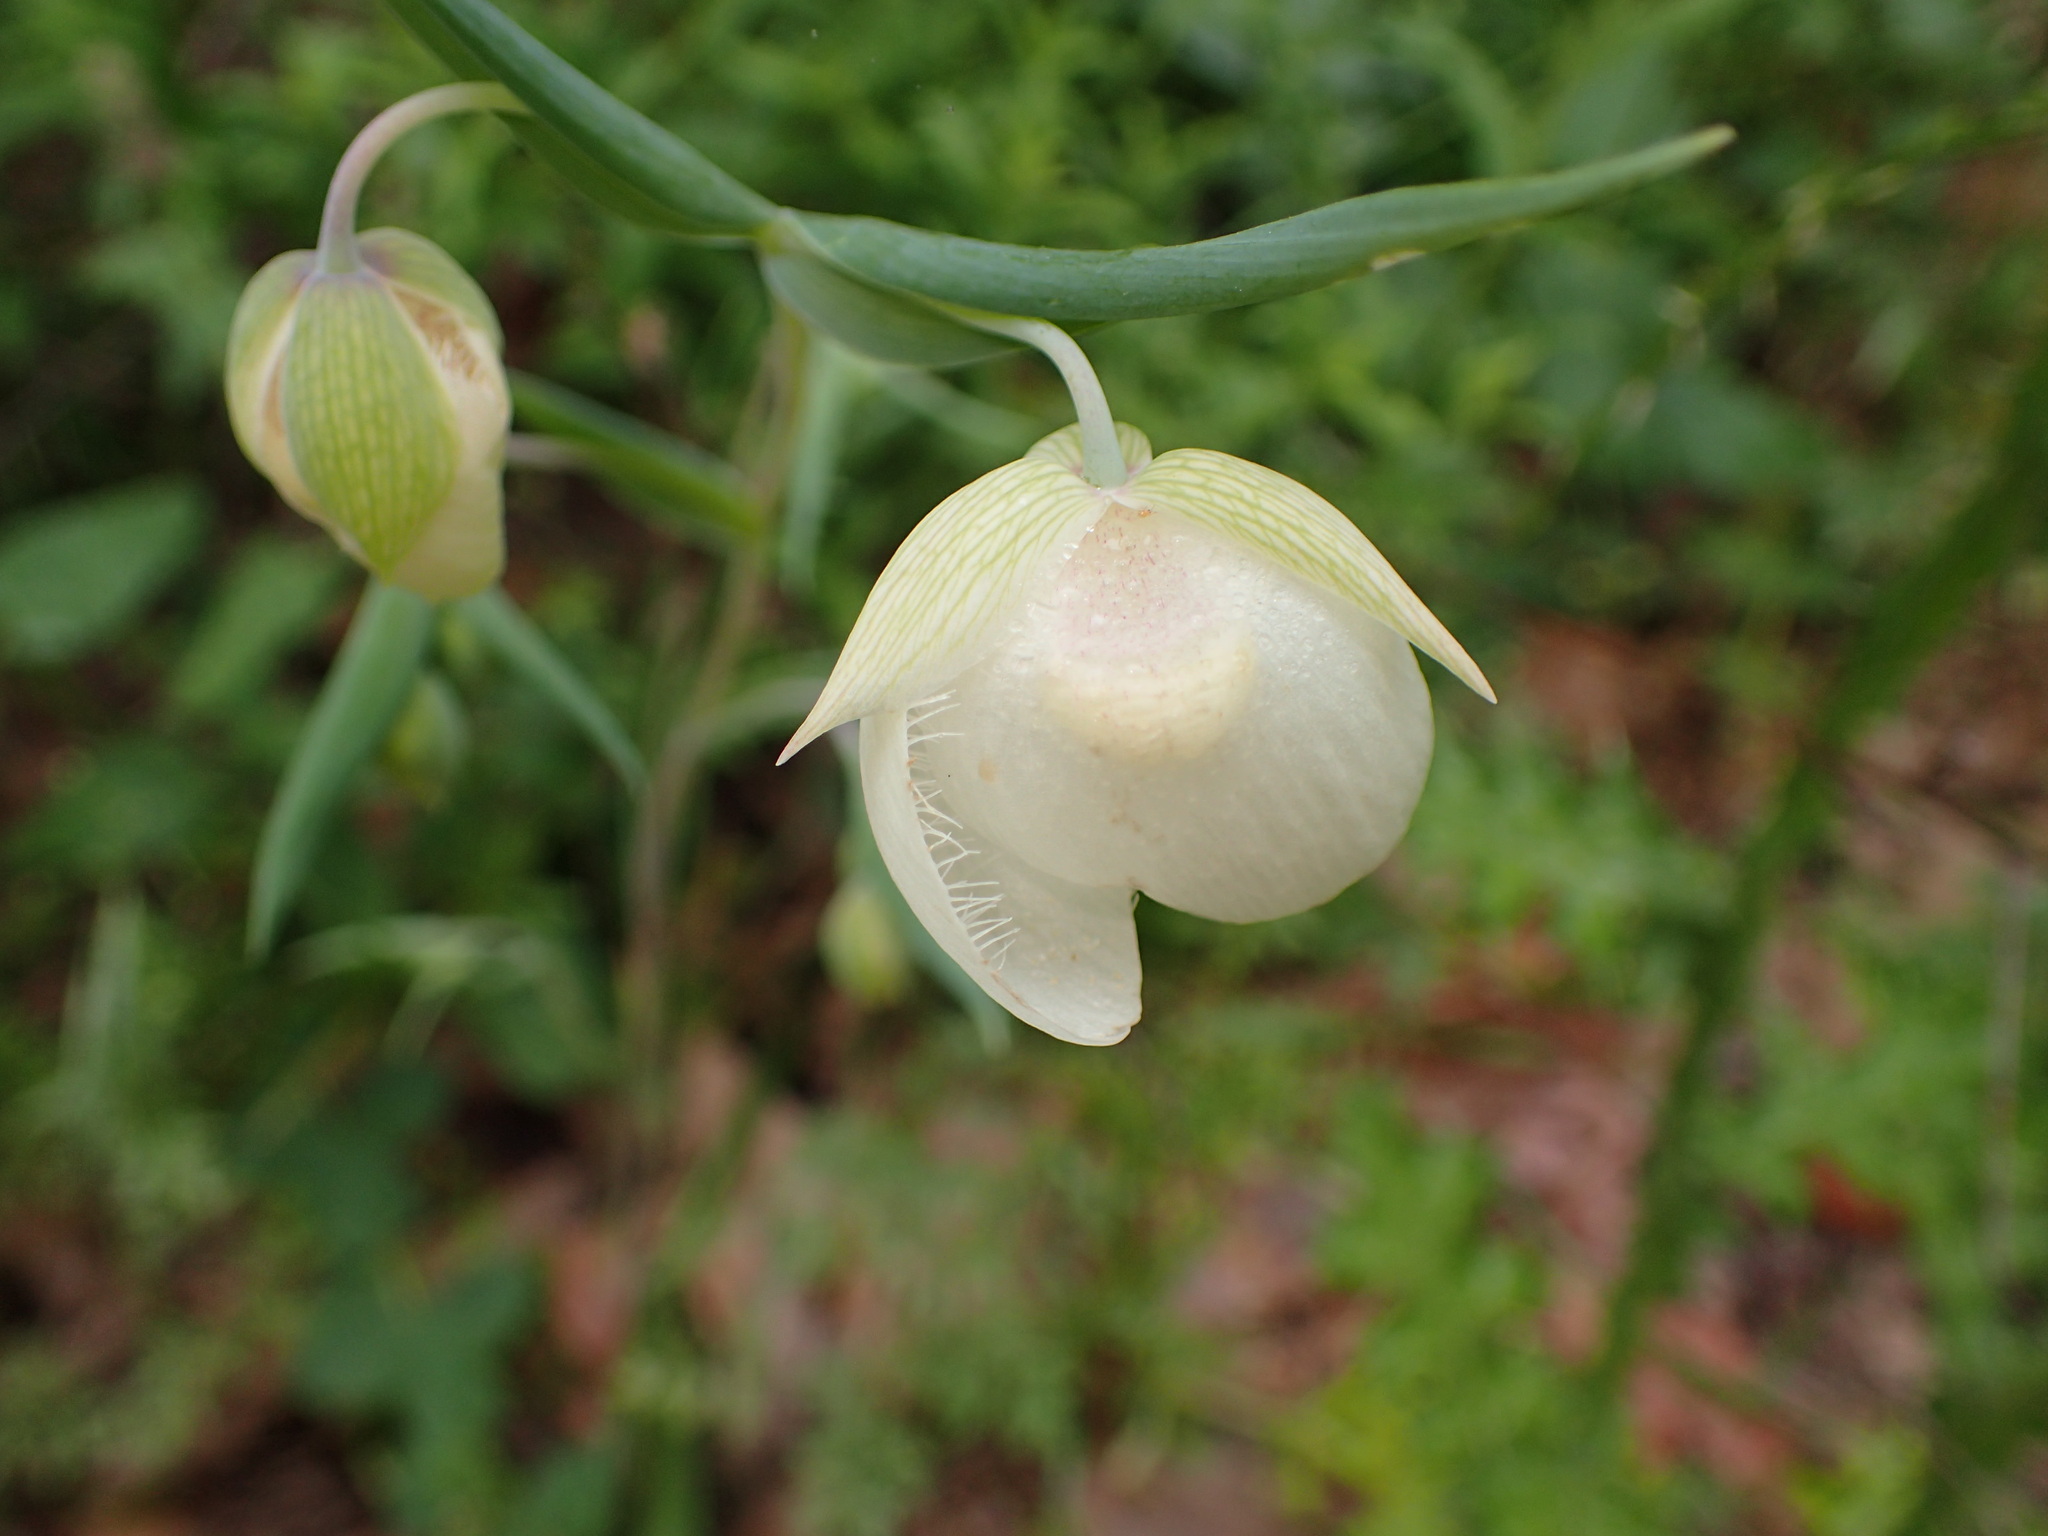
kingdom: Plantae
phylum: Tracheophyta
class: Liliopsida
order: Liliales
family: Liliaceae
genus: Calochortus
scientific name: Calochortus albus
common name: Fairy-lantern
